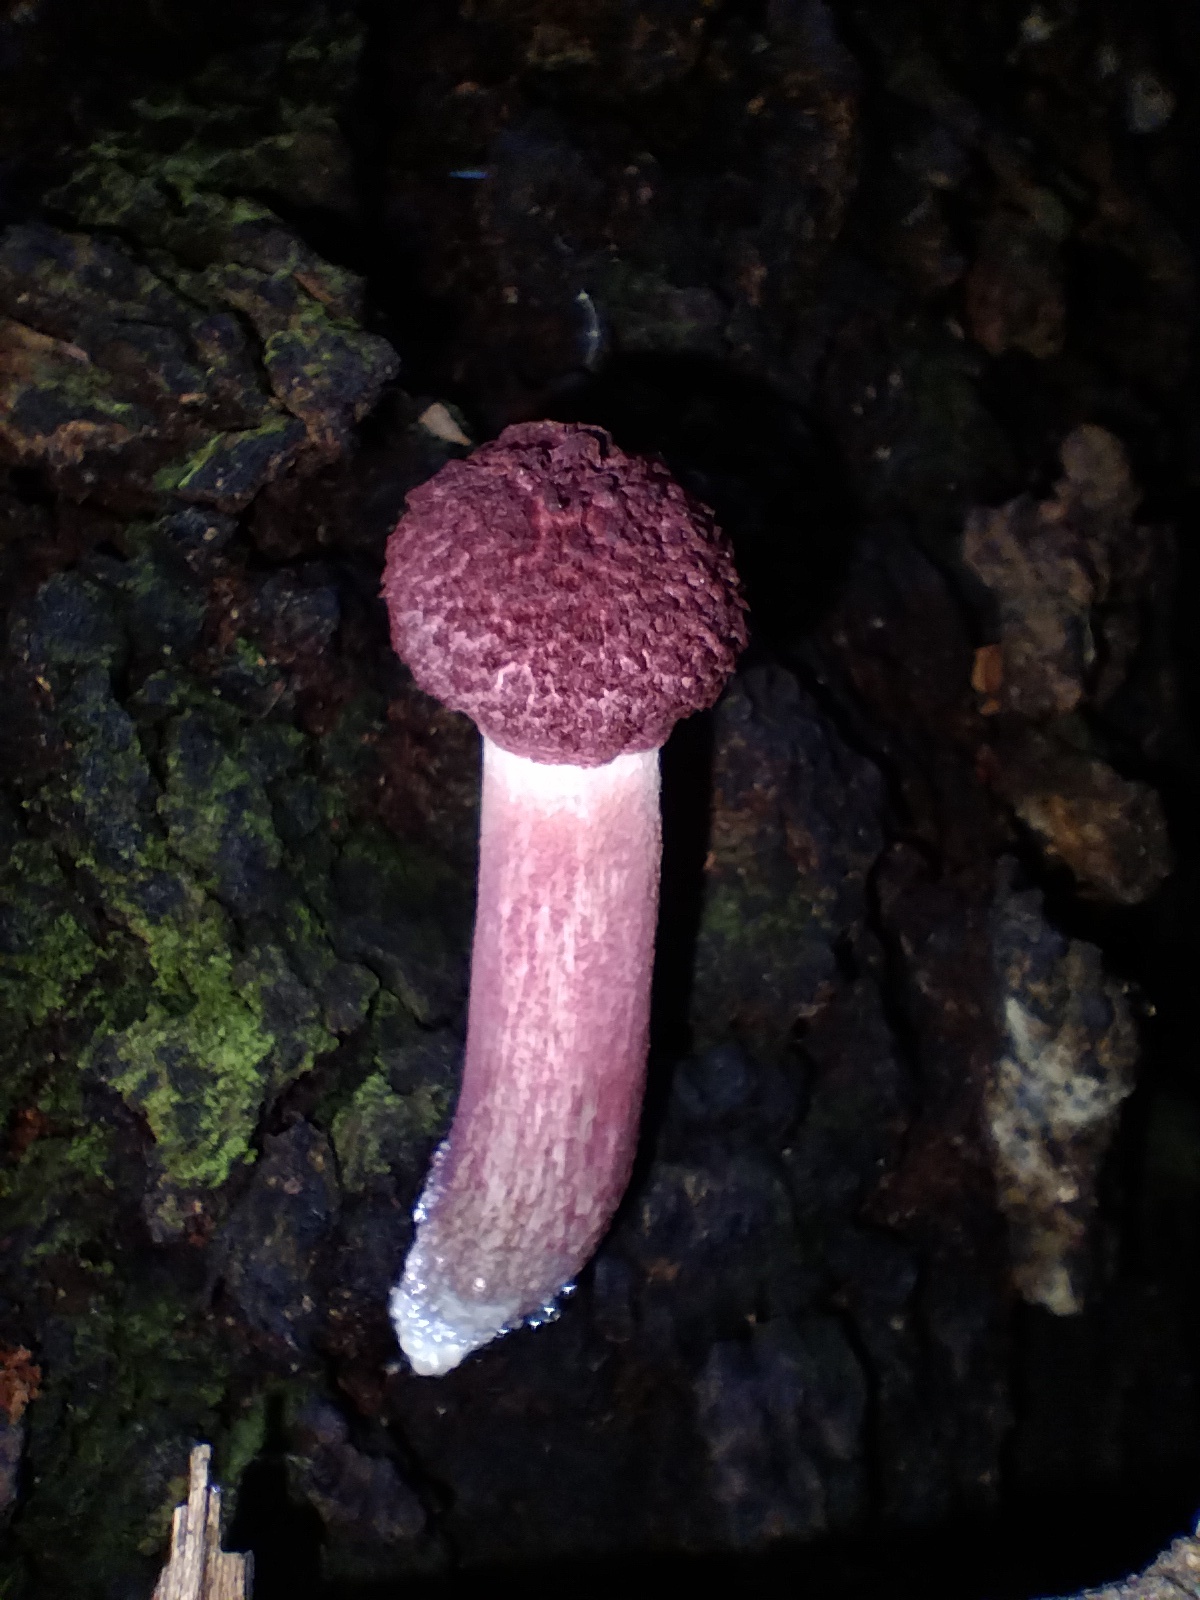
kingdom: Fungi
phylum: Basidiomycota
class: Agaricomycetes
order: Boletales
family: Boletaceae
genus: Boletellus
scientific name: Boletellus emodensis
